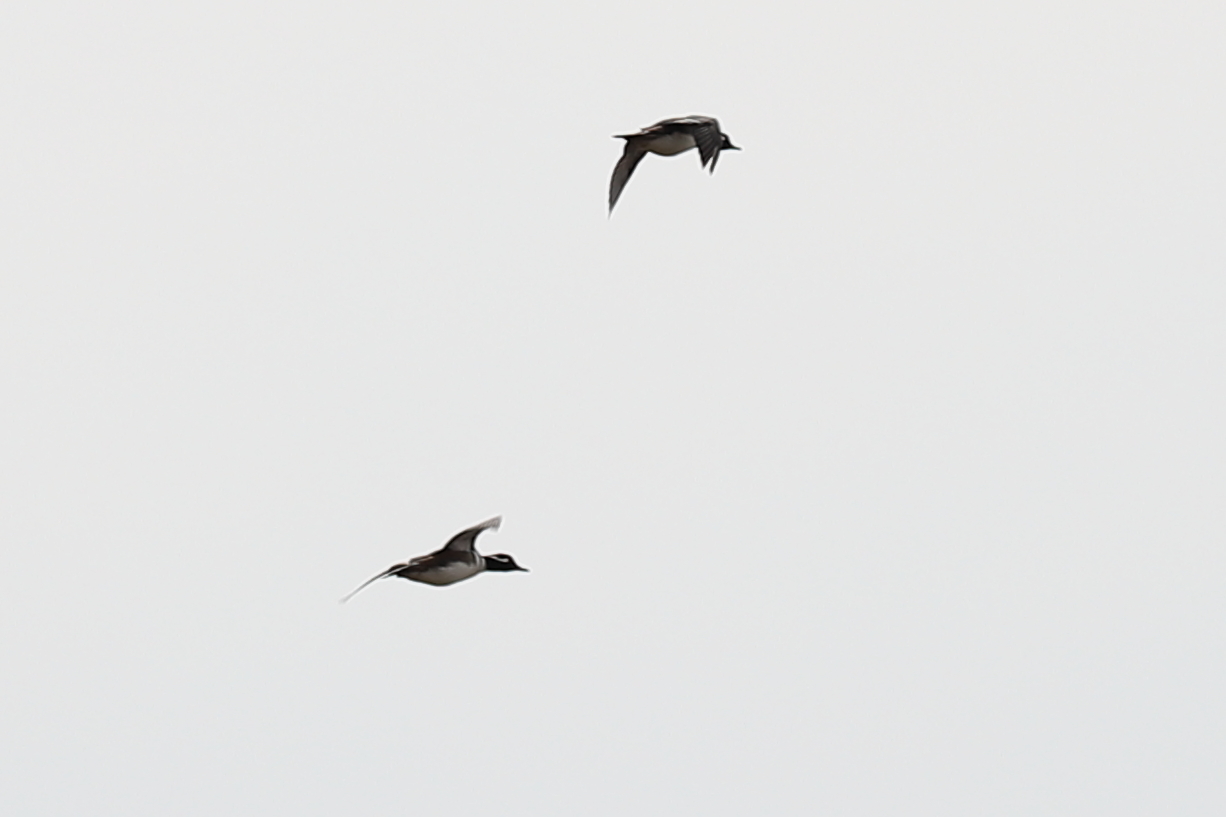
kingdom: Animalia
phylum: Chordata
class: Aves
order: Anseriformes
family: Anatidae
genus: Lophodytes
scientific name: Lophodytes cucullatus
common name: Hooded merganser
